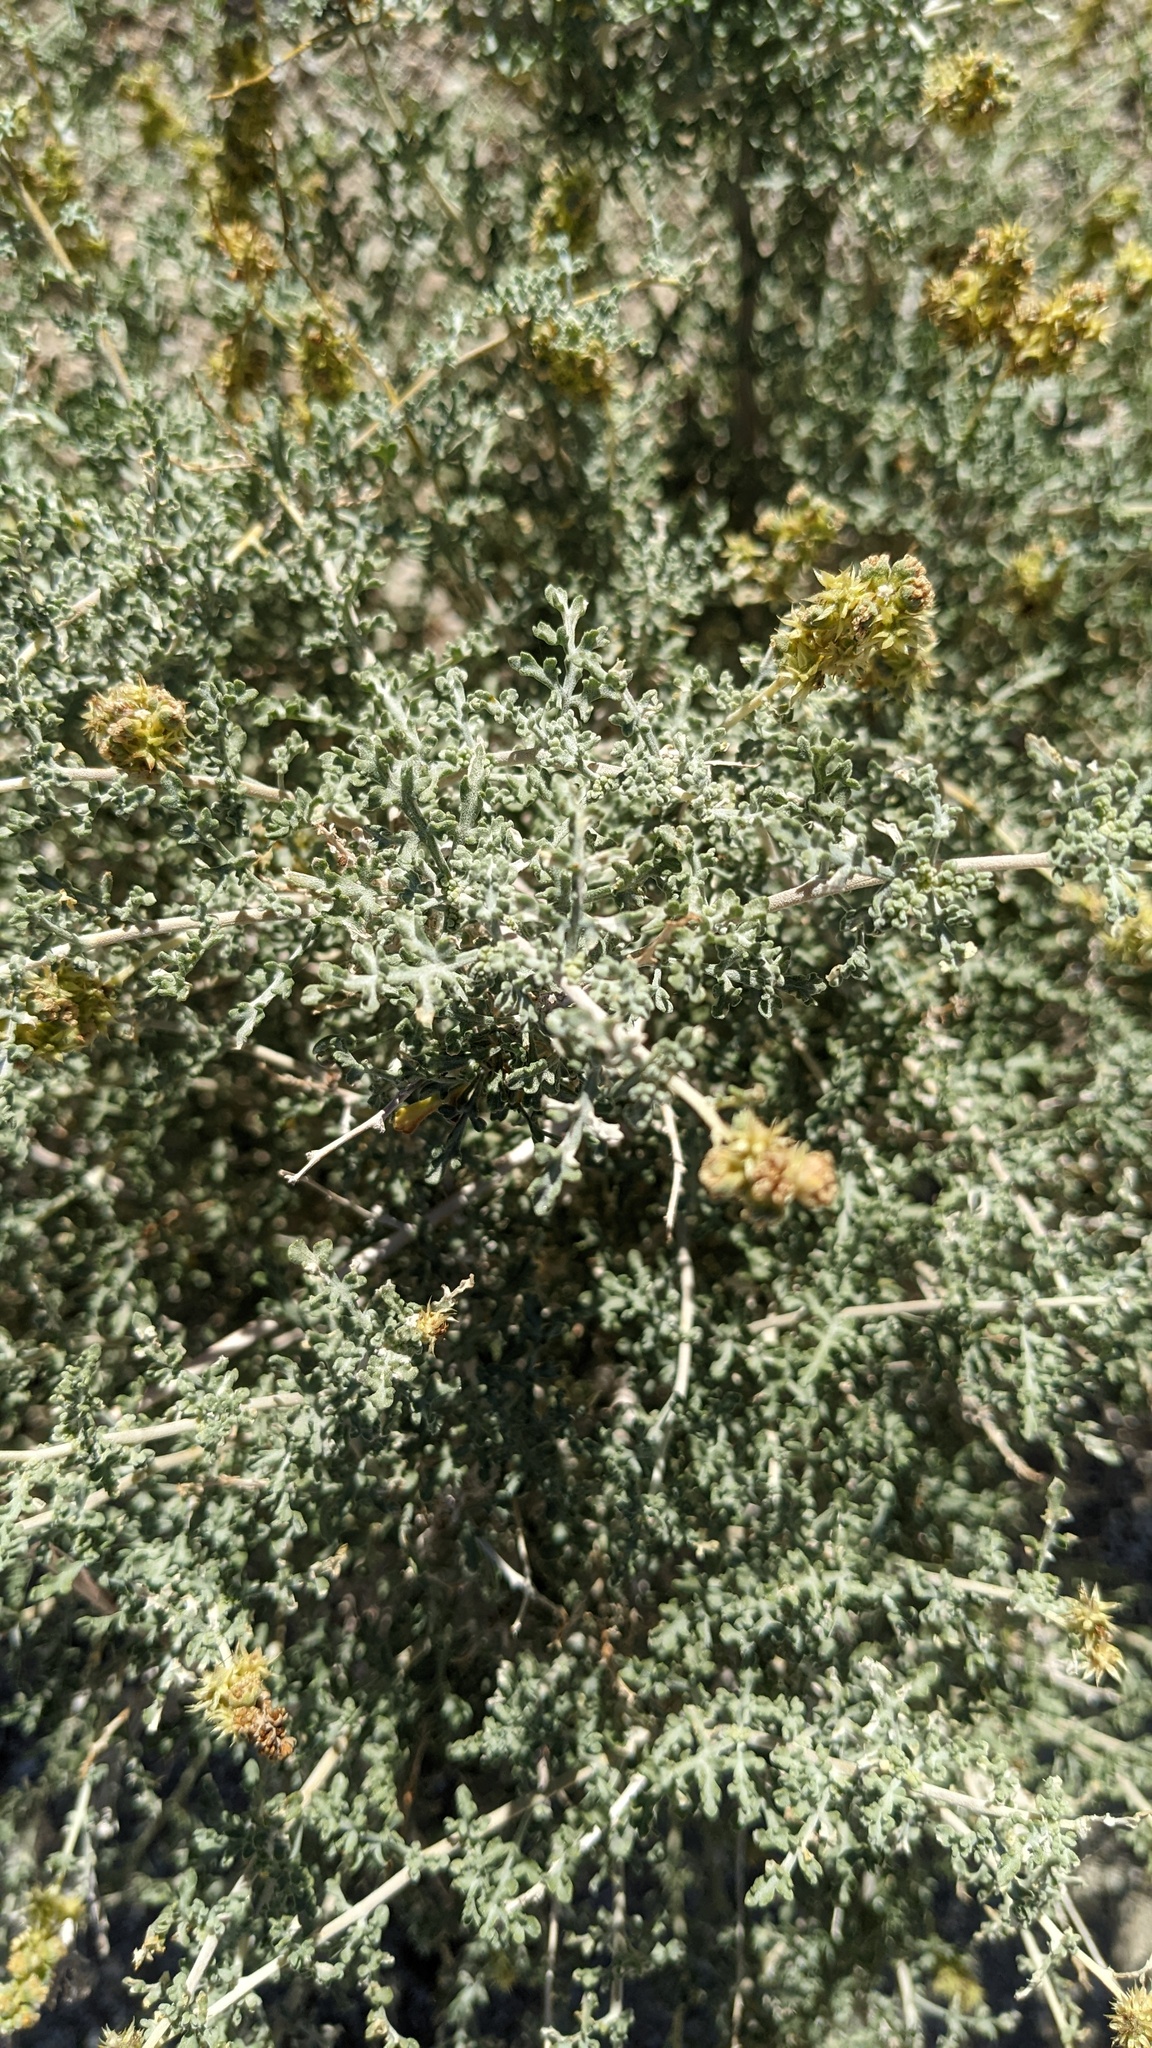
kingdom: Plantae
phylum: Tracheophyta
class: Magnoliopsida
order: Asterales
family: Asteraceae
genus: Ambrosia
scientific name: Ambrosia dumosa
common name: Bur-sage
